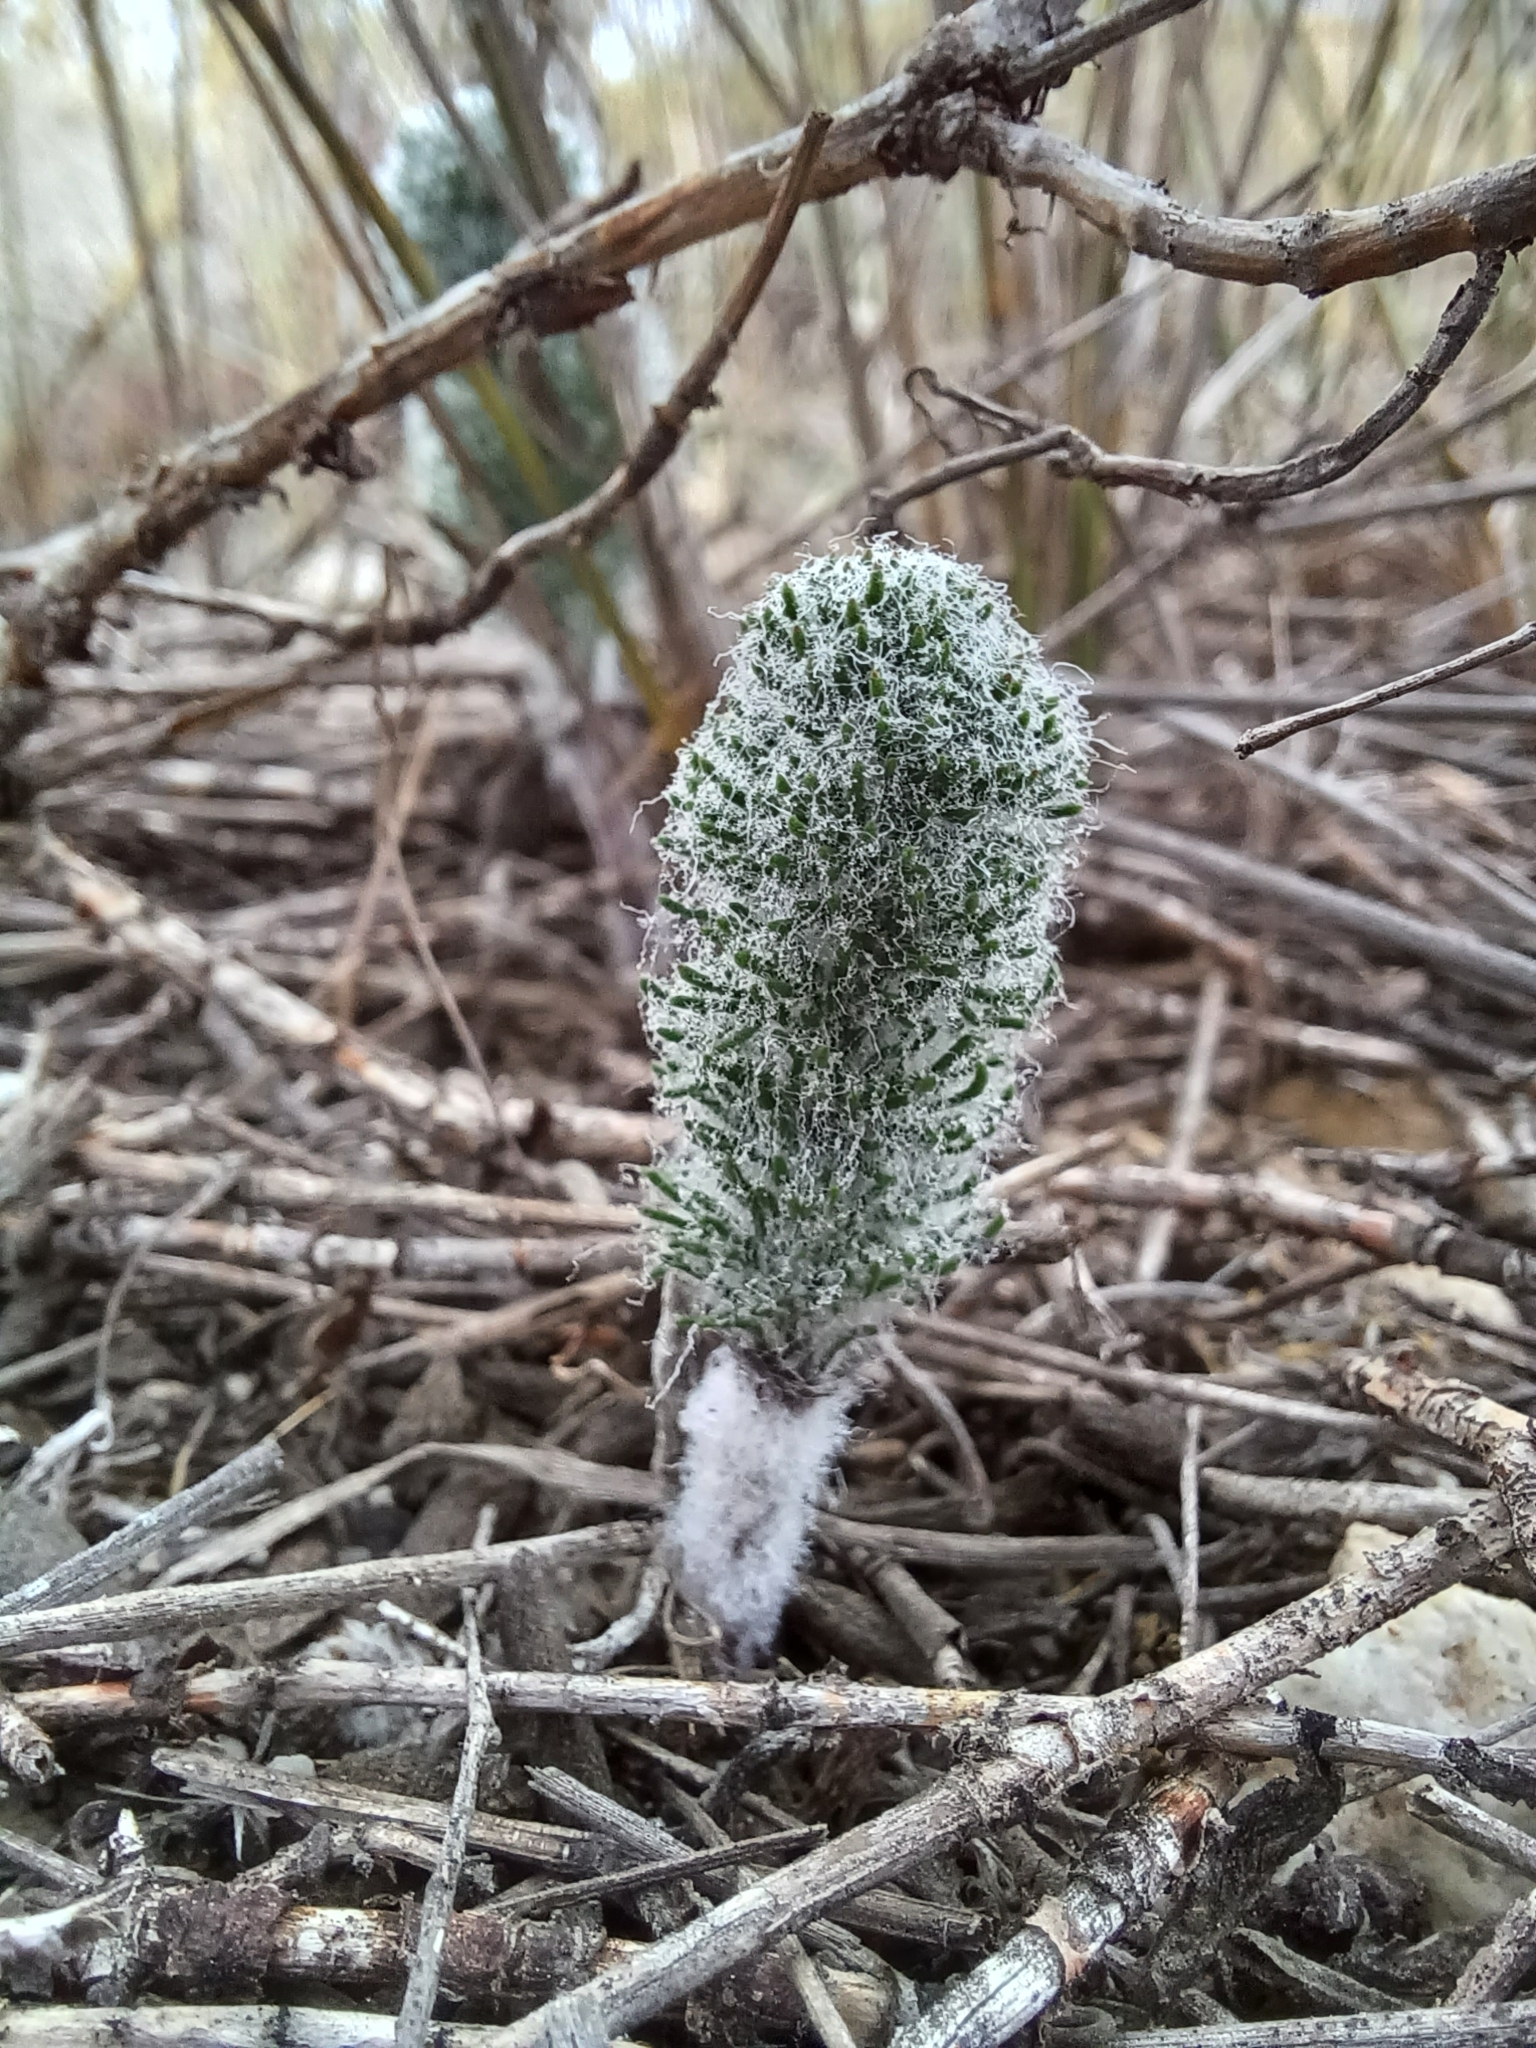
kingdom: Plantae
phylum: Tracheophyta
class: Liliopsida
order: Asparagales
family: Asparagaceae
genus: Eriospermum
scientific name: Eriospermum paradoxum
